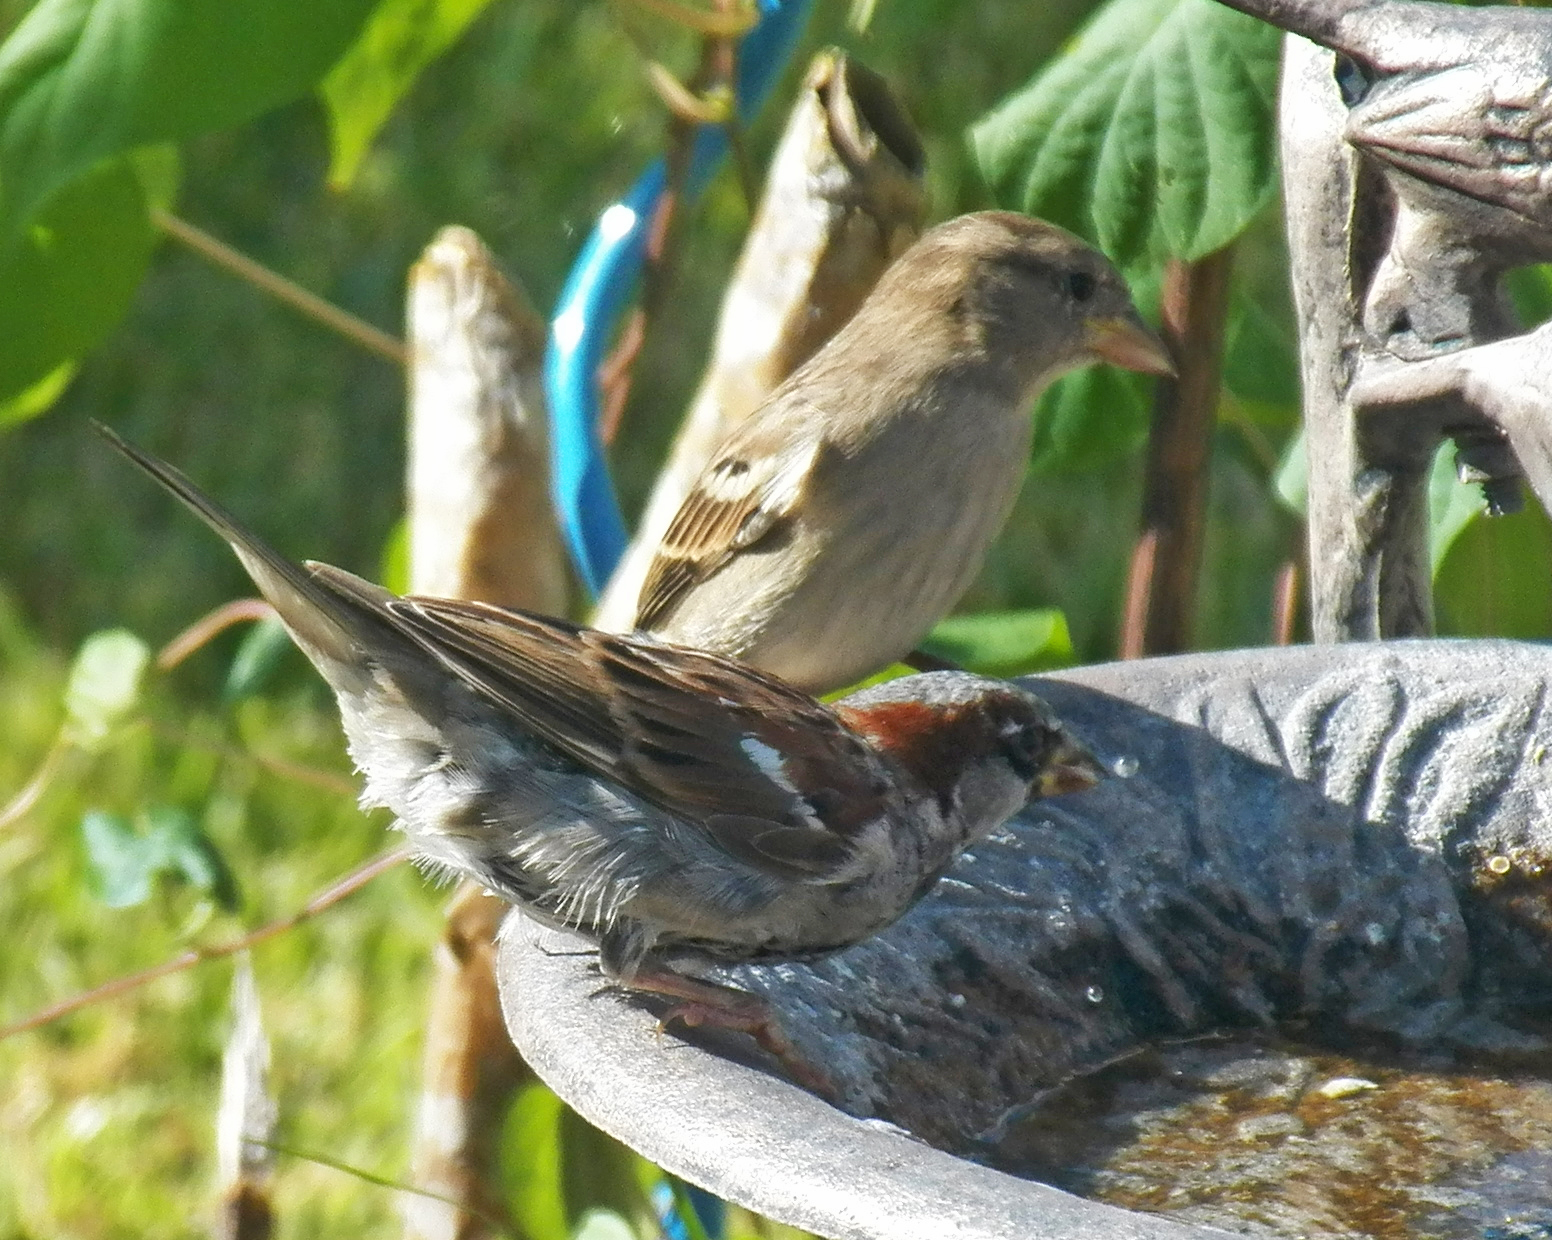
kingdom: Animalia
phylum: Chordata
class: Aves
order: Passeriformes
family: Passeridae
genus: Passer
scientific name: Passer domesticus
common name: House sparrow
